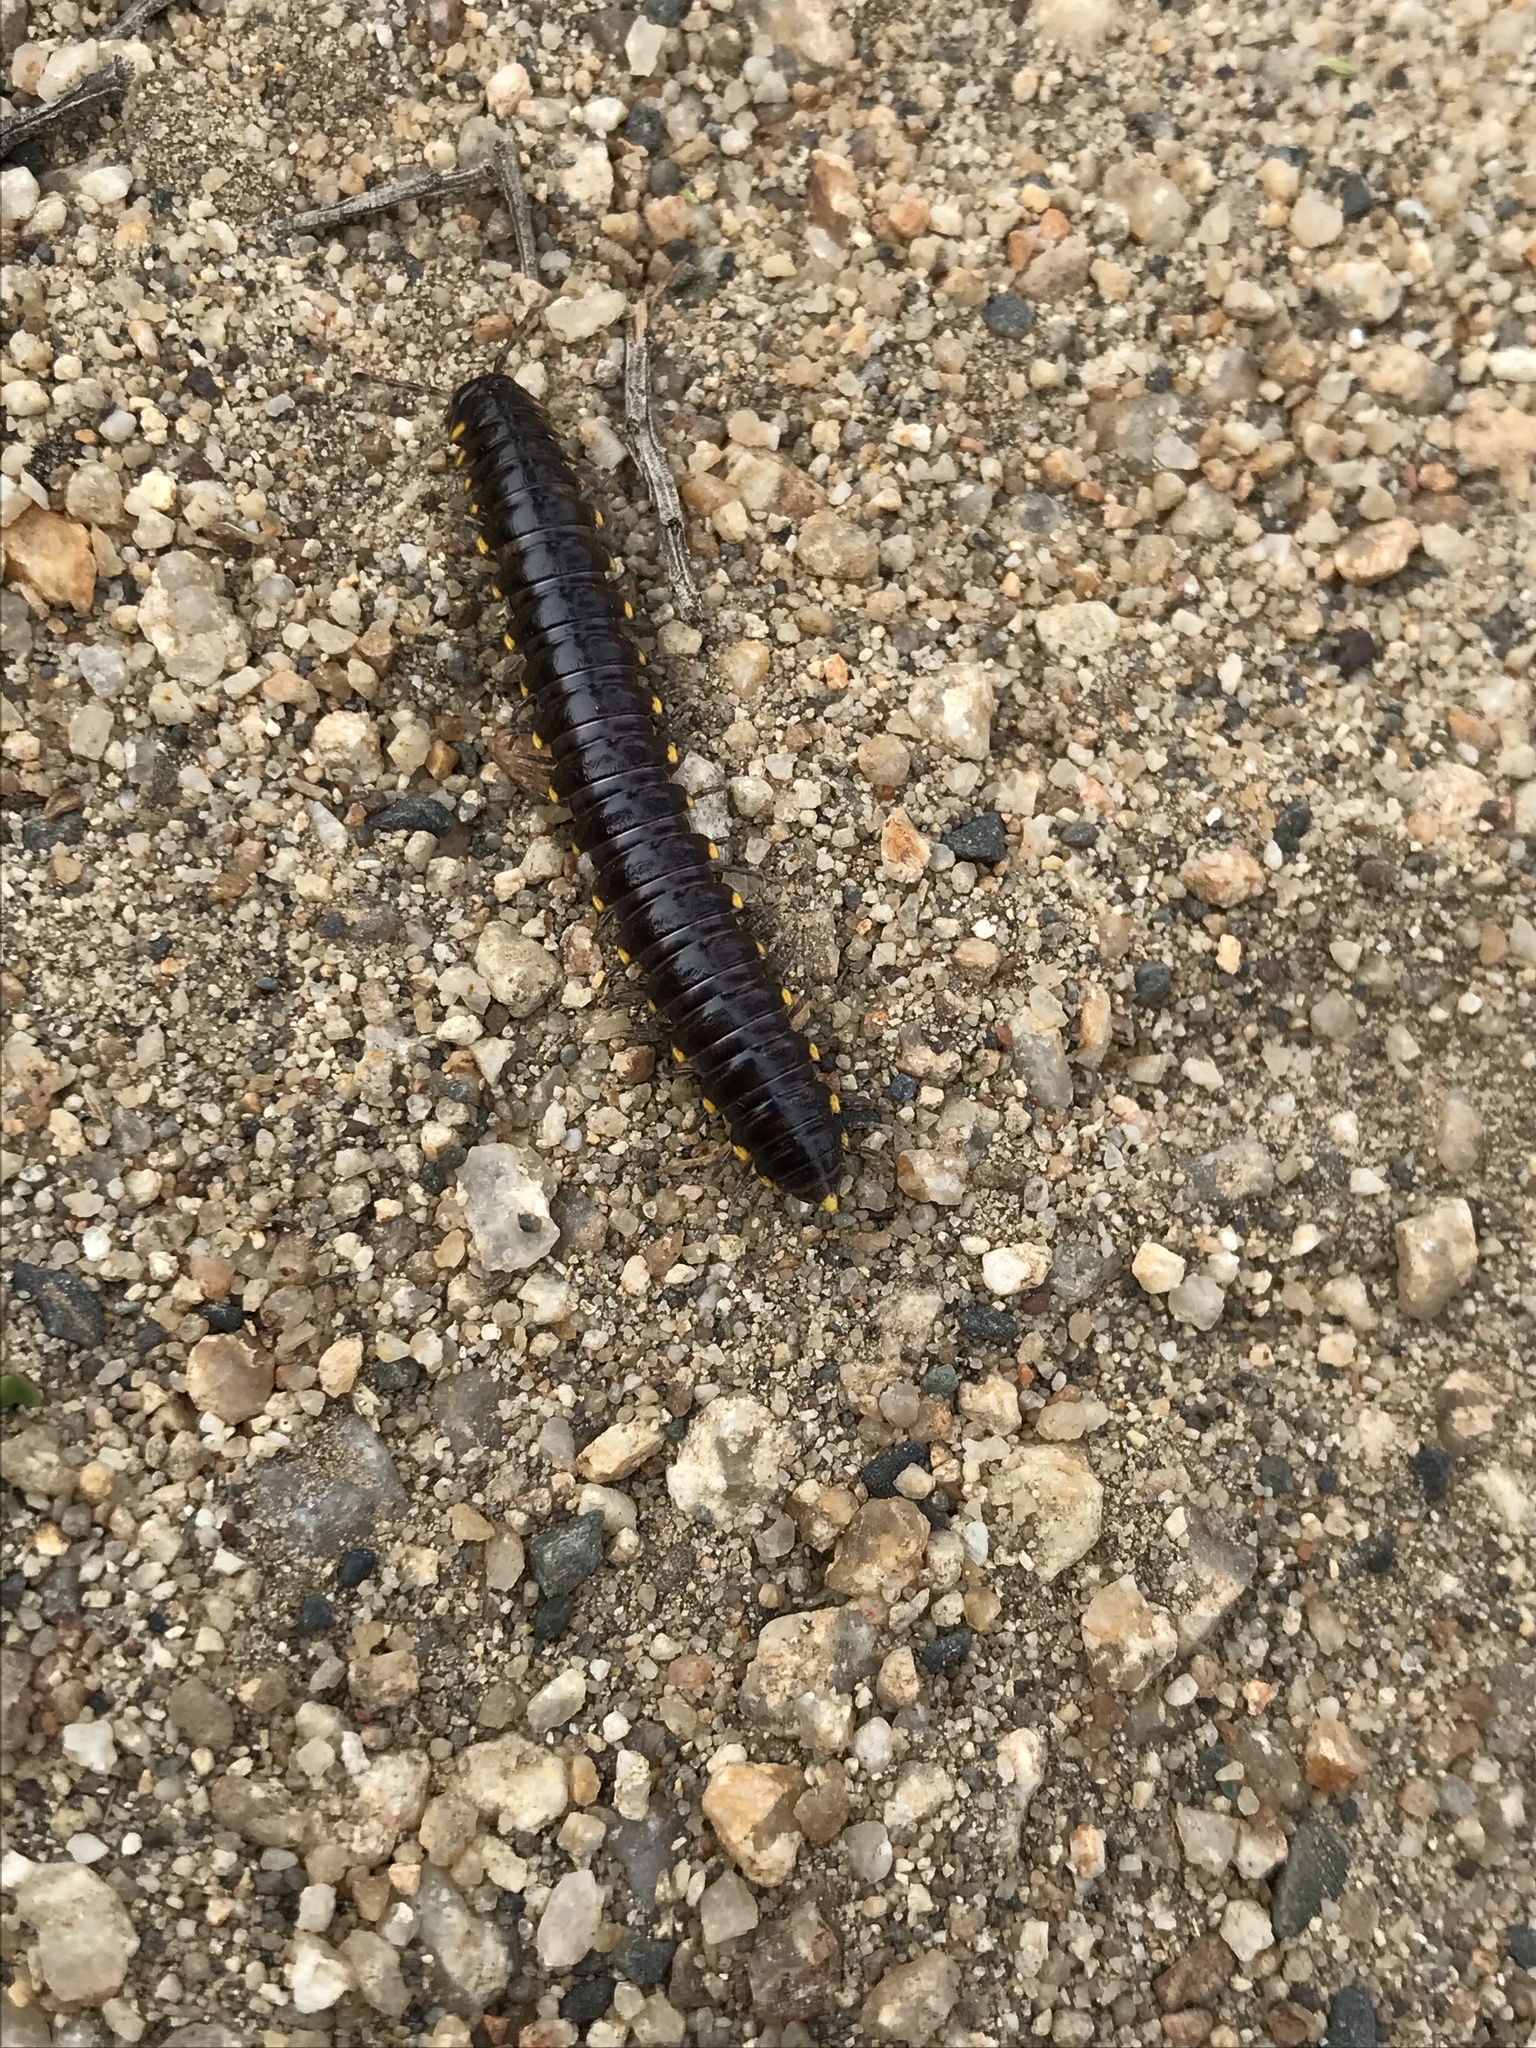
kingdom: Animalia
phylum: Arthropoda
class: Diplopoda
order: Polydesmida
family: Xystodesmidae
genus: Harpaphe
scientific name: Harpaphe haydeniana
